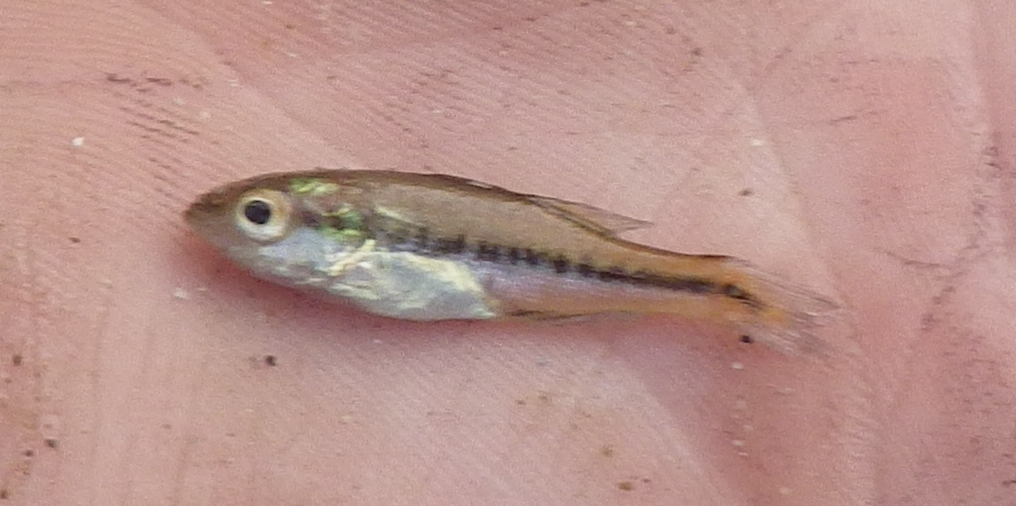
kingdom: Animalia
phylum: Chordata
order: Perciformes
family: Centrarchidae
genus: Micropterus
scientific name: Micropterus
